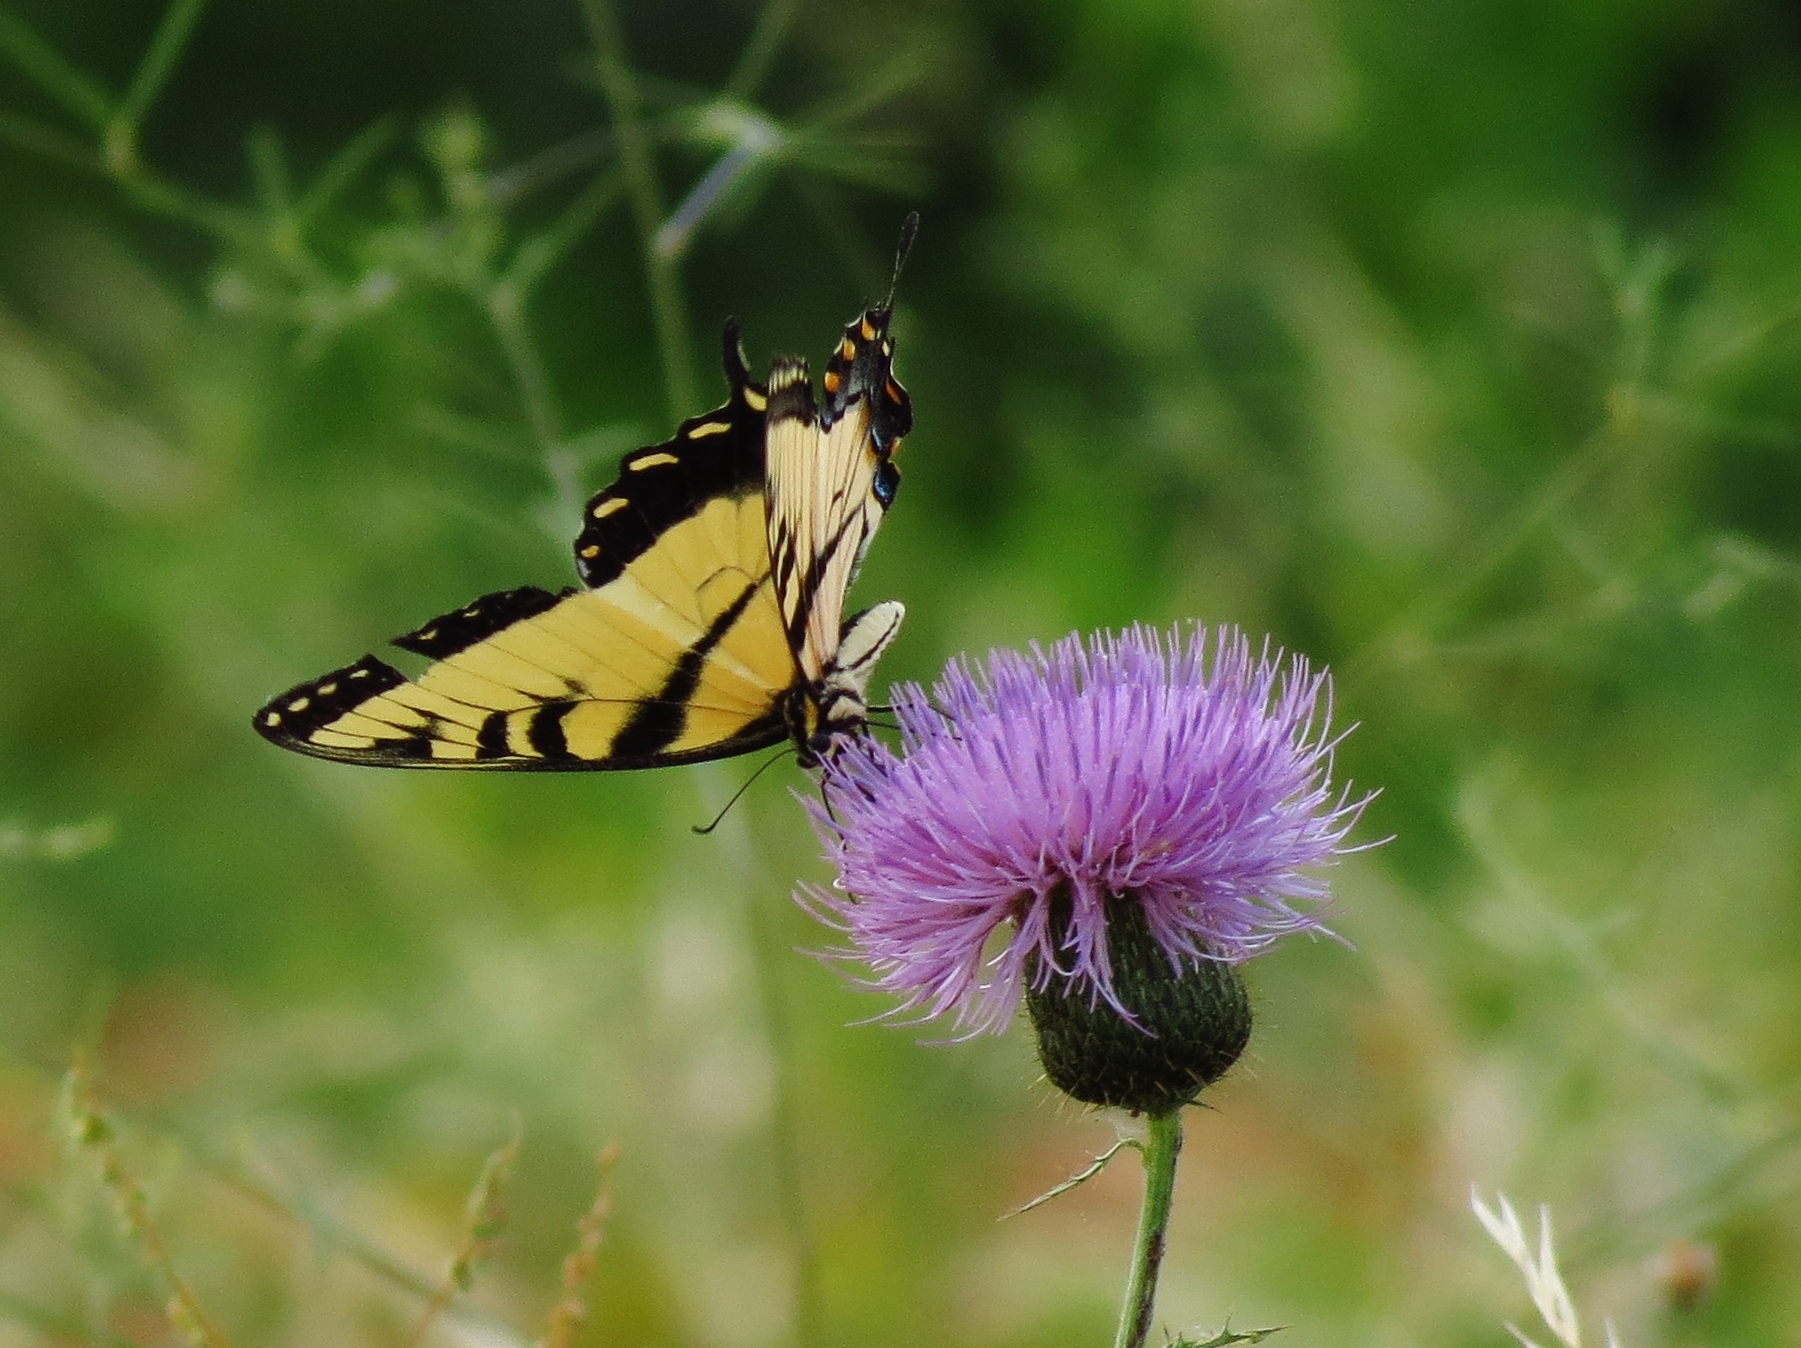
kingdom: Animalia
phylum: Arthropoda
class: Insecta
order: Lepidoptera
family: Papilionidae
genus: Papilio
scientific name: Papilio glaucus
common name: Tiger swallowtail
